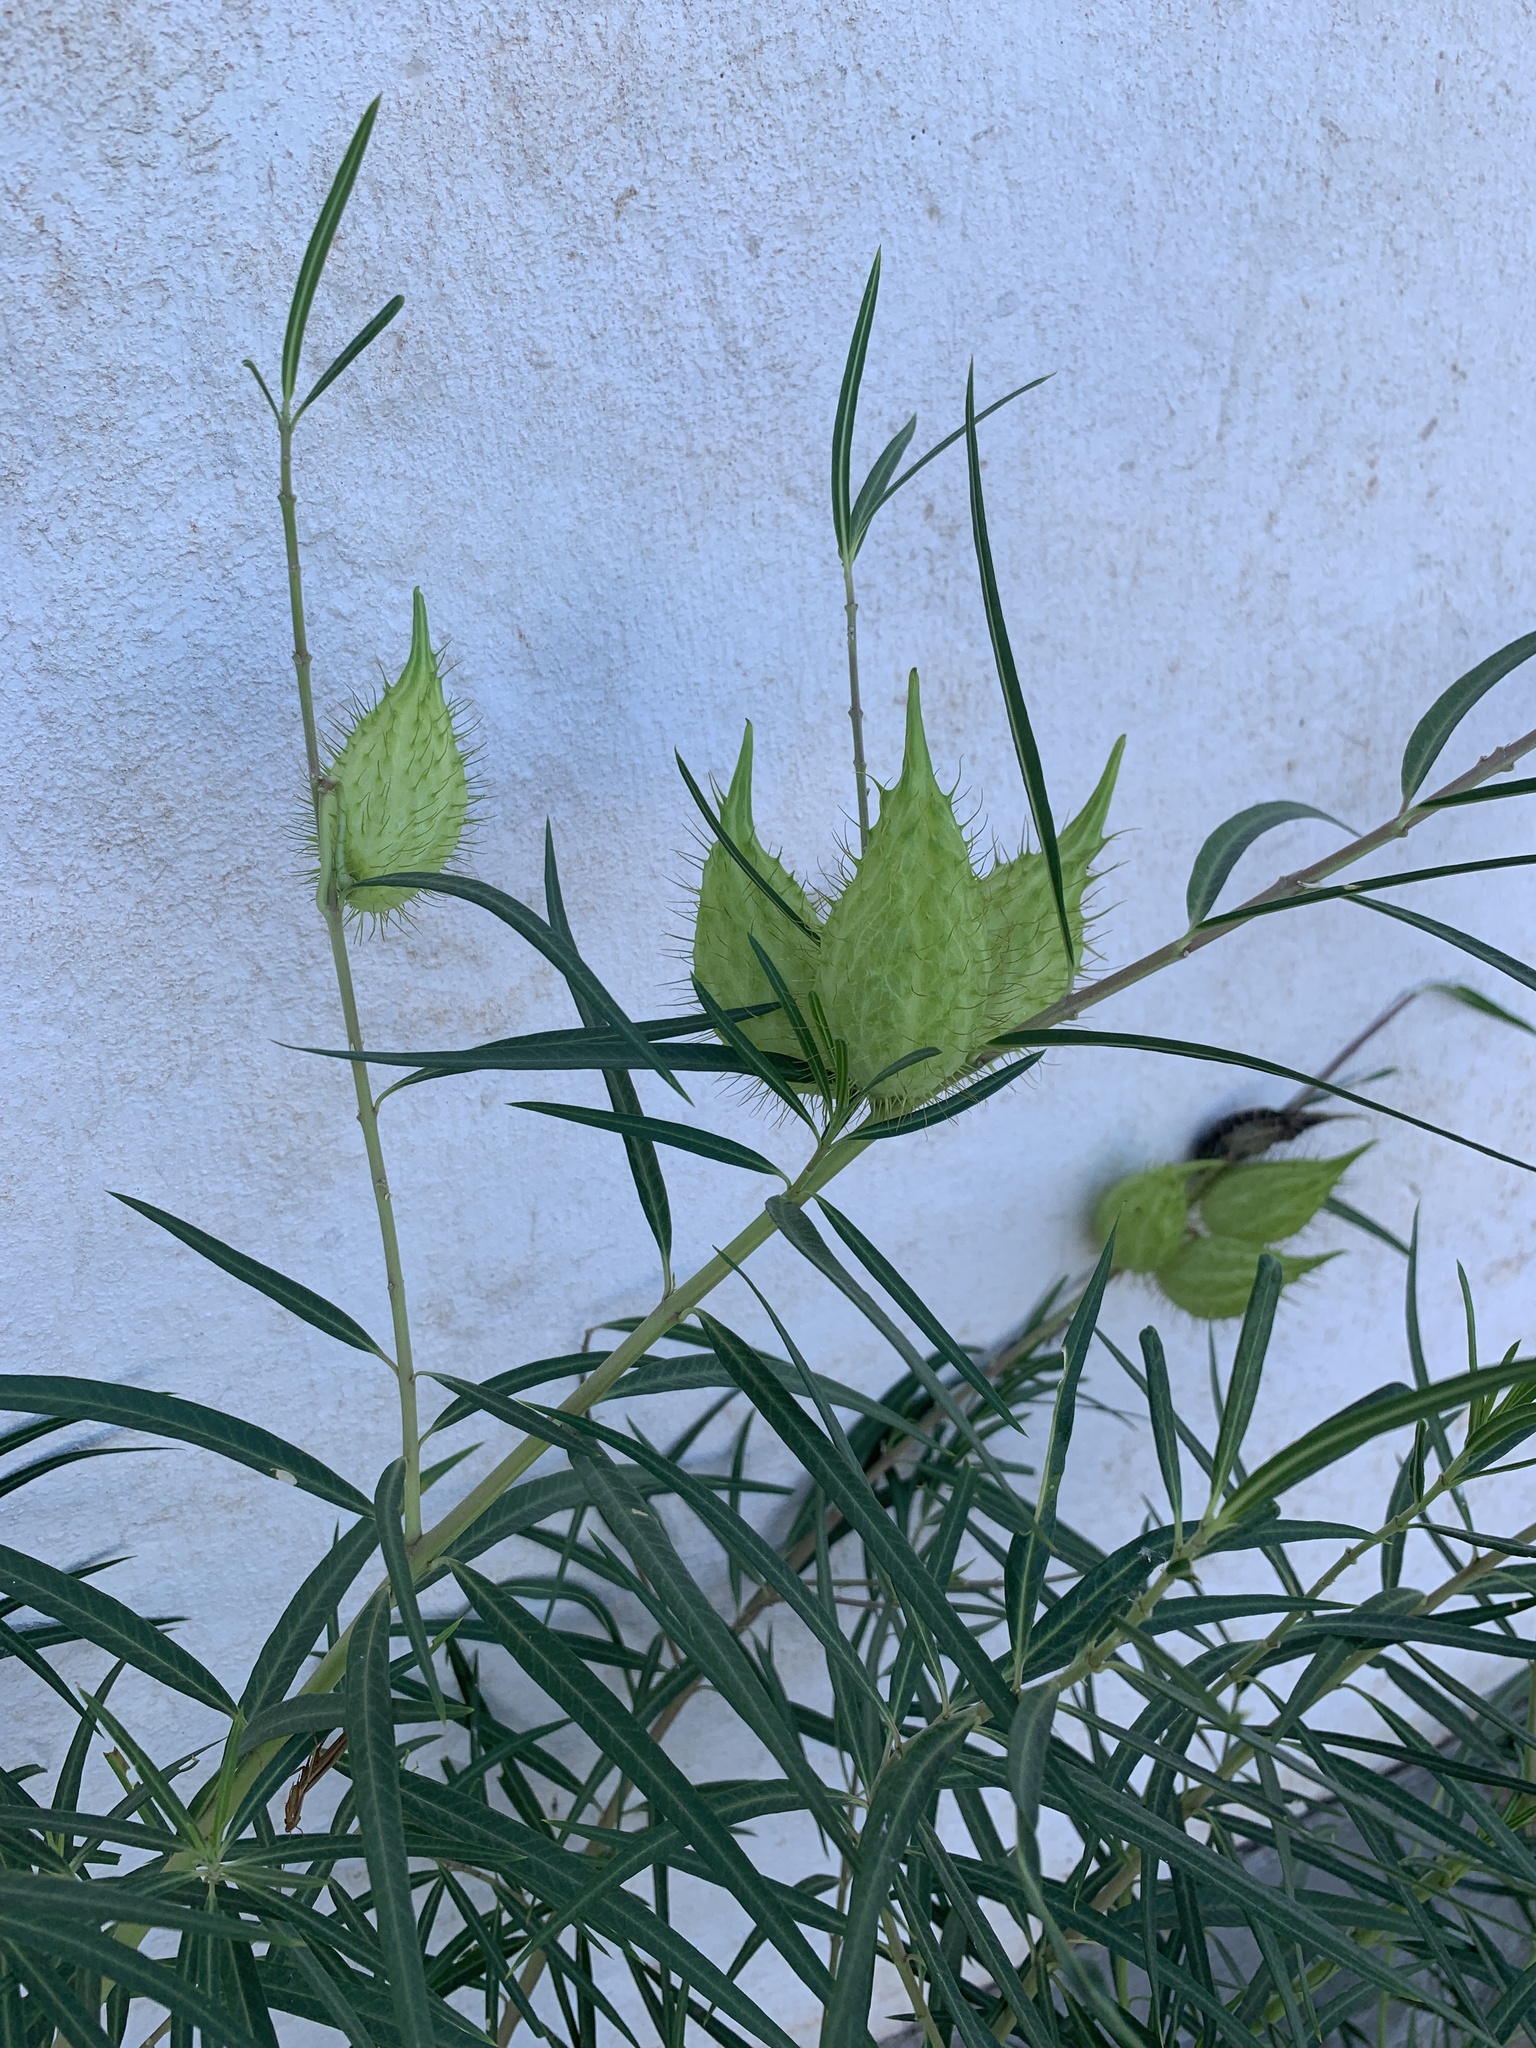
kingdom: Plantae
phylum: Tracheophyta
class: Magnoliopsida
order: Gentianales
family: Apocynaceae
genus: Gomphocarpus
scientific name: Gomphocarpus fruticosus
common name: Milkweed
